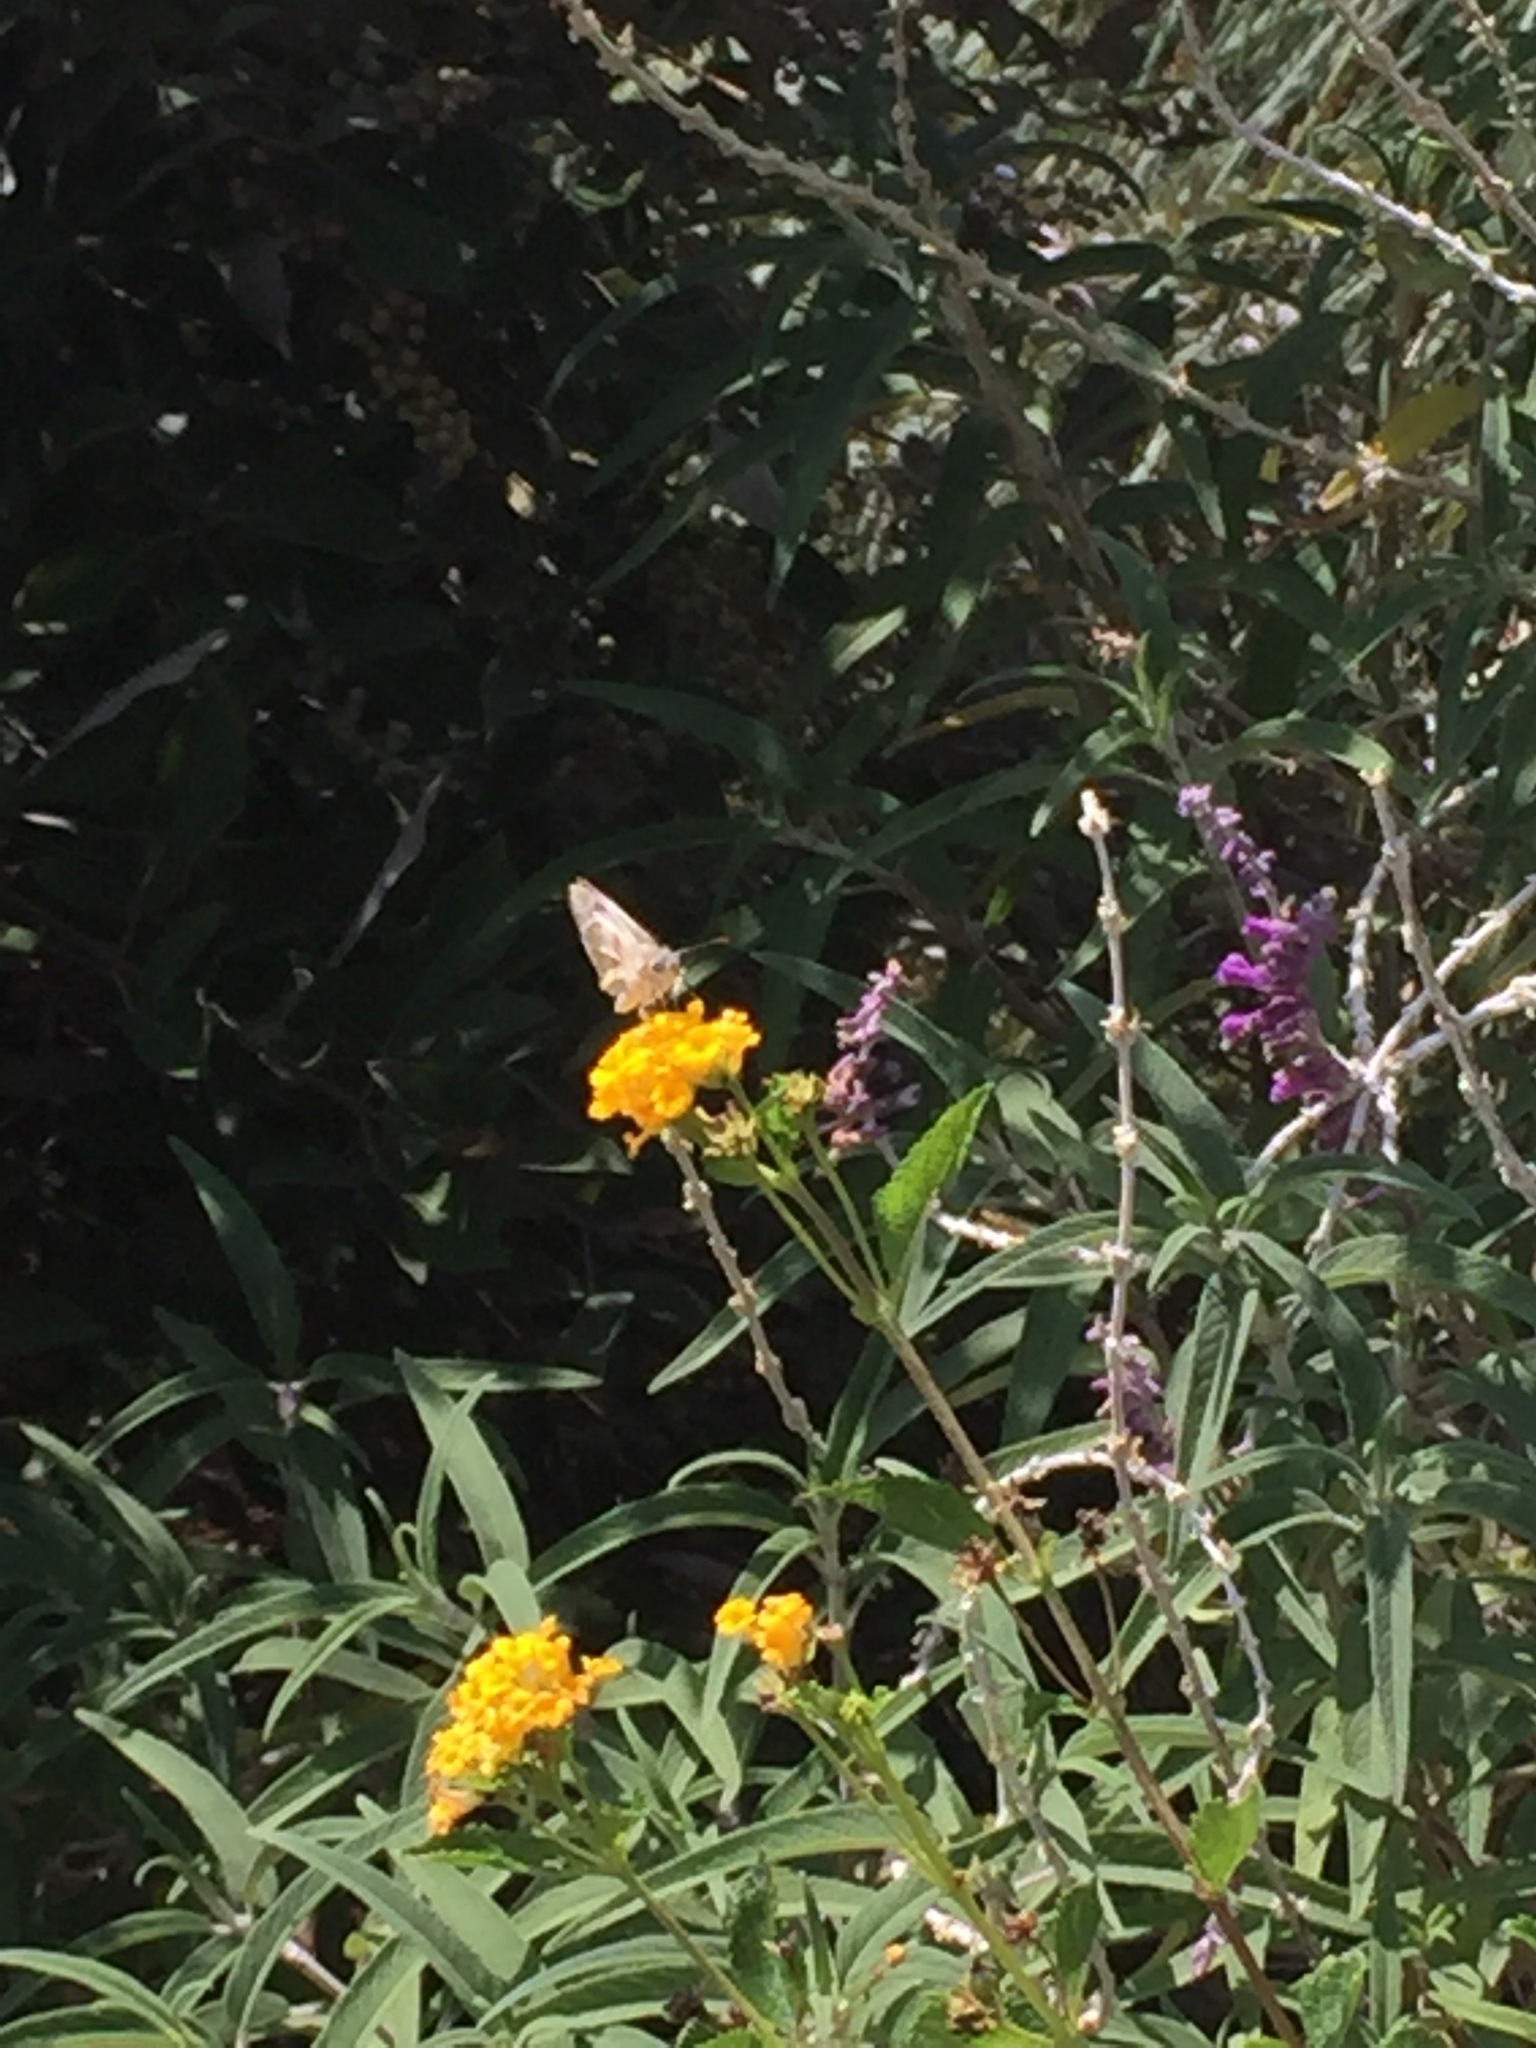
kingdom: Animalia
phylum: Arthropoda
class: Insecta
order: Lepidoptera
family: Hesperiidae
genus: Heliopetes
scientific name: Heliopetes ericetorum
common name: Northern white-skipper
